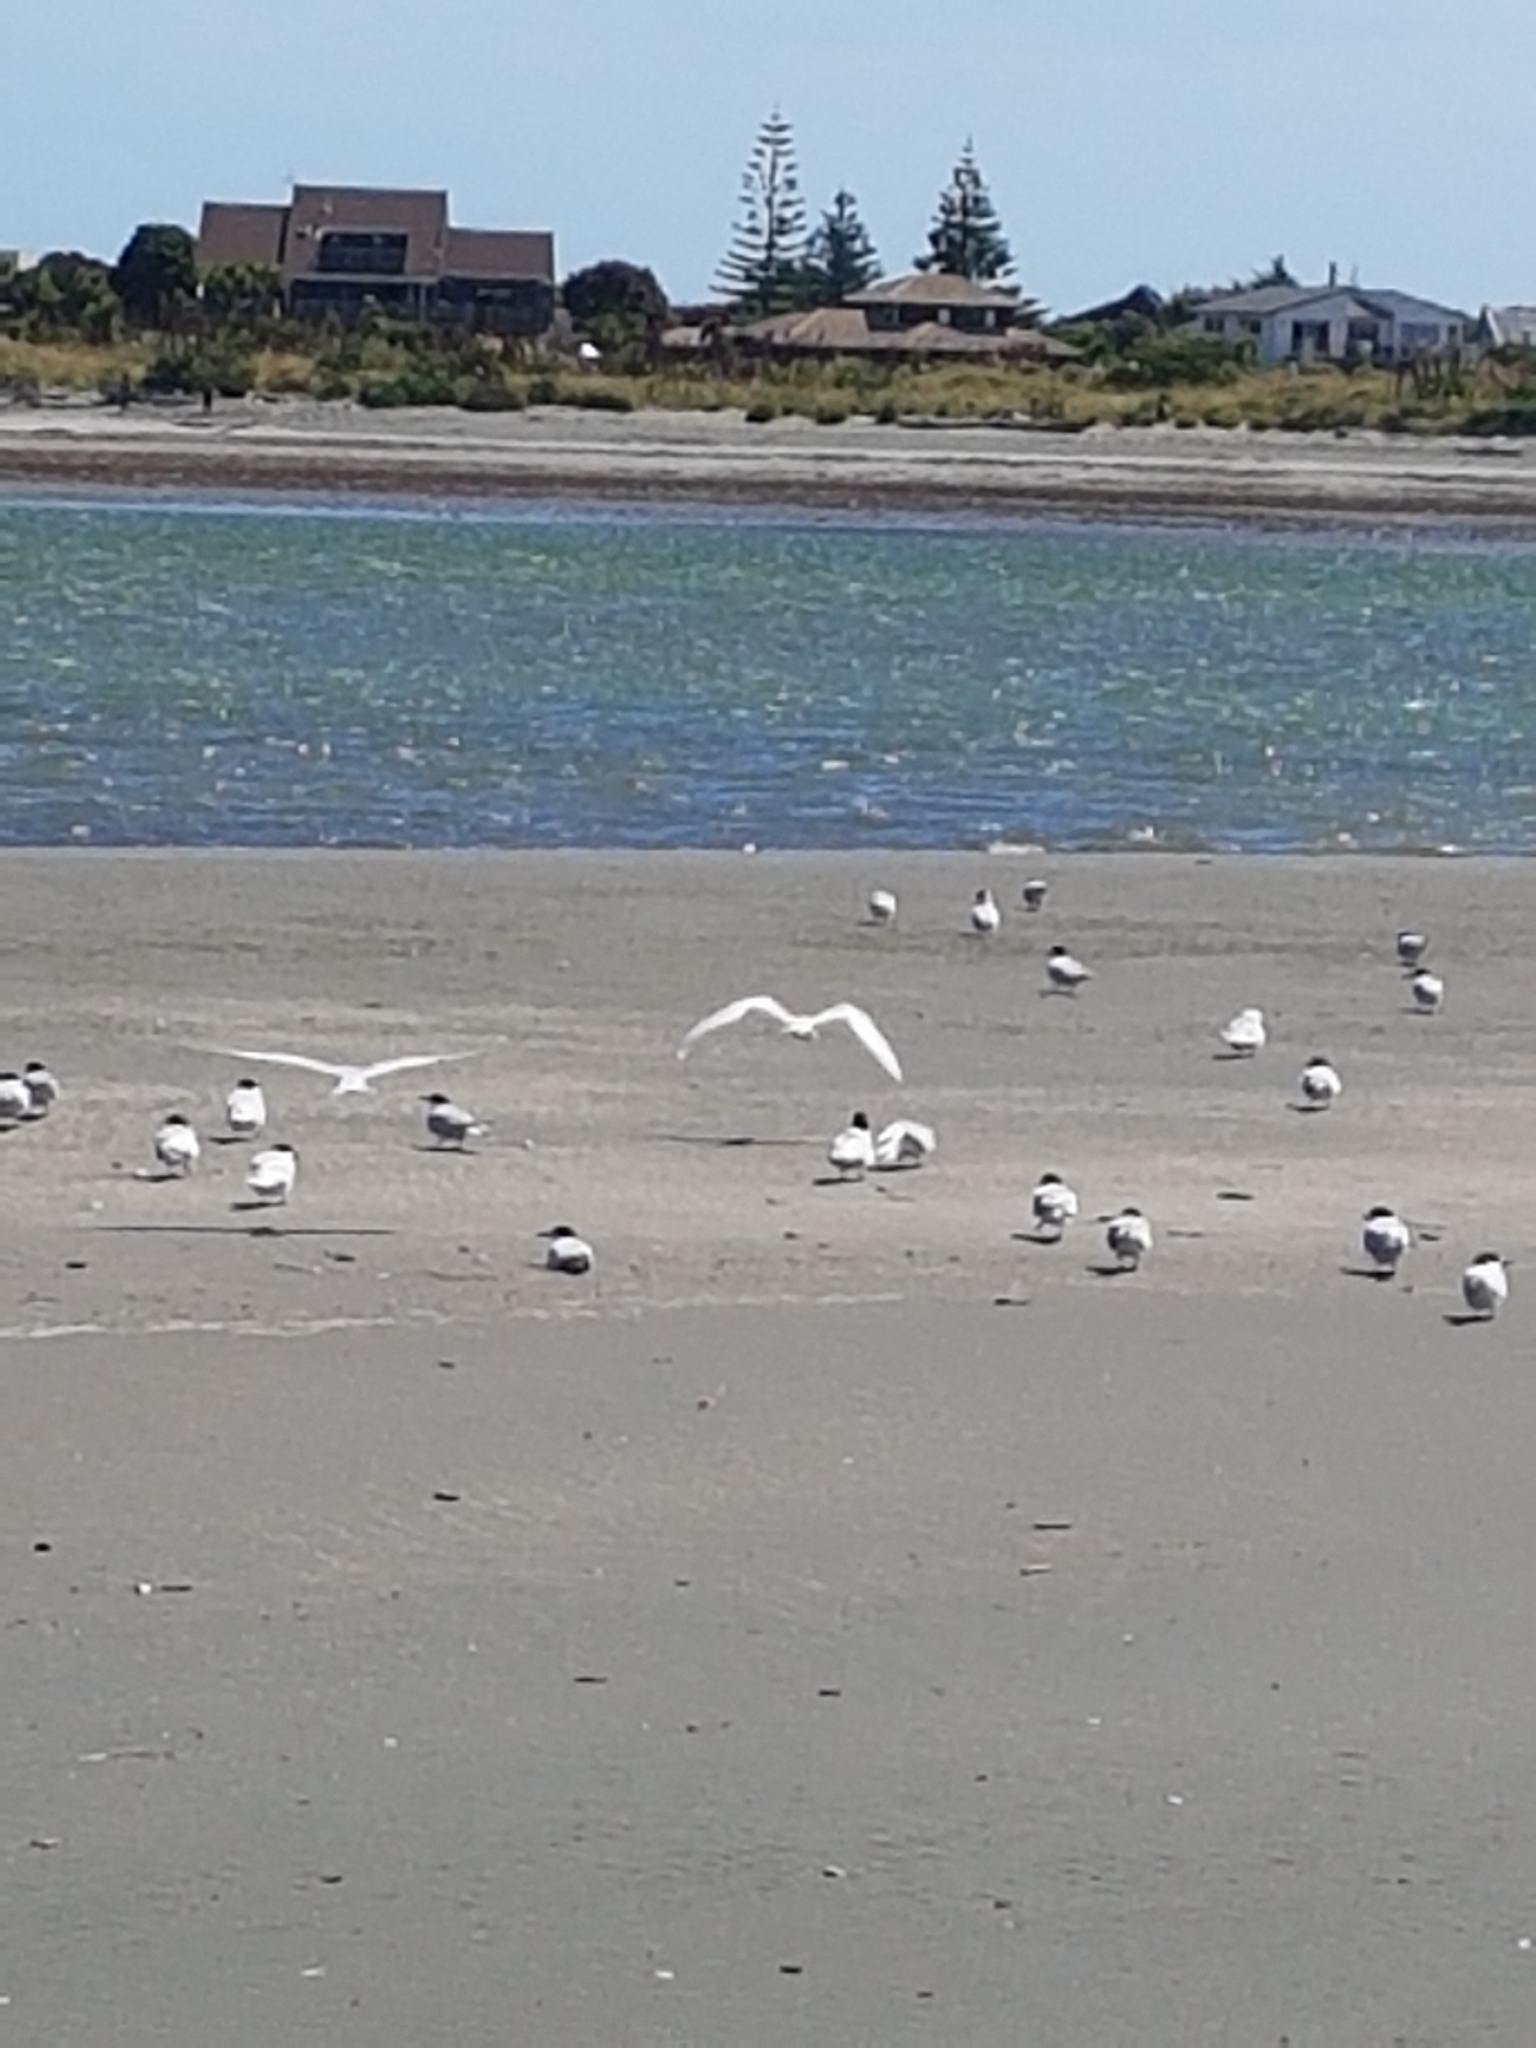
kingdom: Animalia
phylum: Chordata
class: Aves
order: Charadriiformes
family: Laridae
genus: Sterna
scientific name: Sterna striata
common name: White-fronted tern
